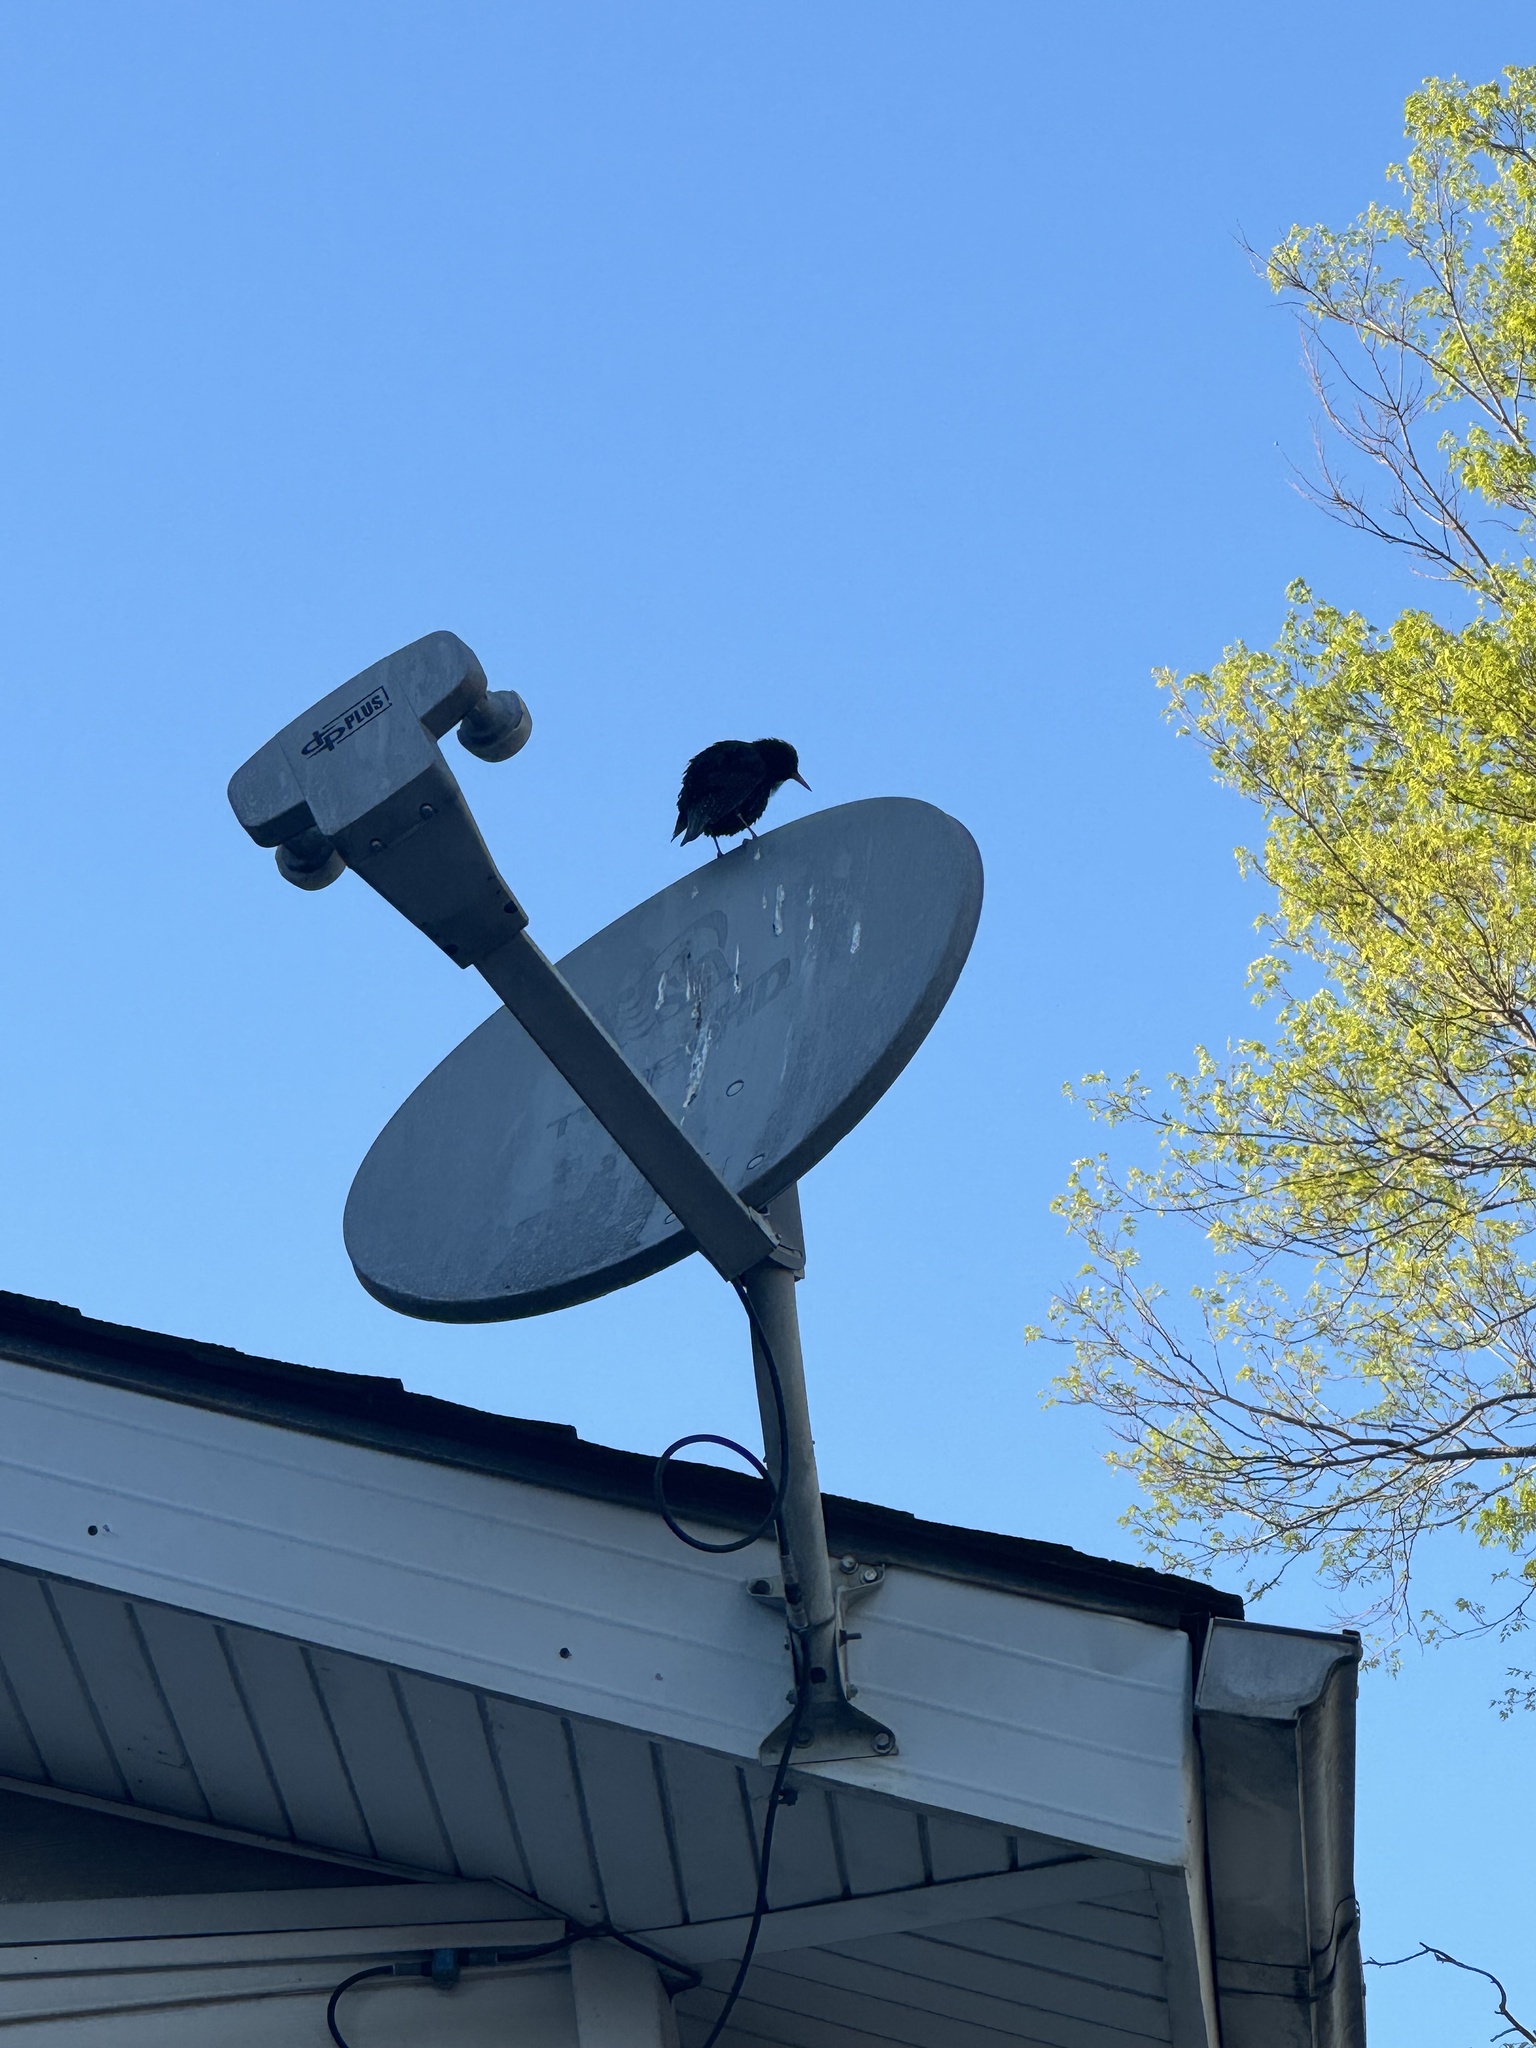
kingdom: Animalia
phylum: Chordata
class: Aves
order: Passeriformes
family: Sturnidae
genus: Sturnus
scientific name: Sturnus vulgaris
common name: Common starling
